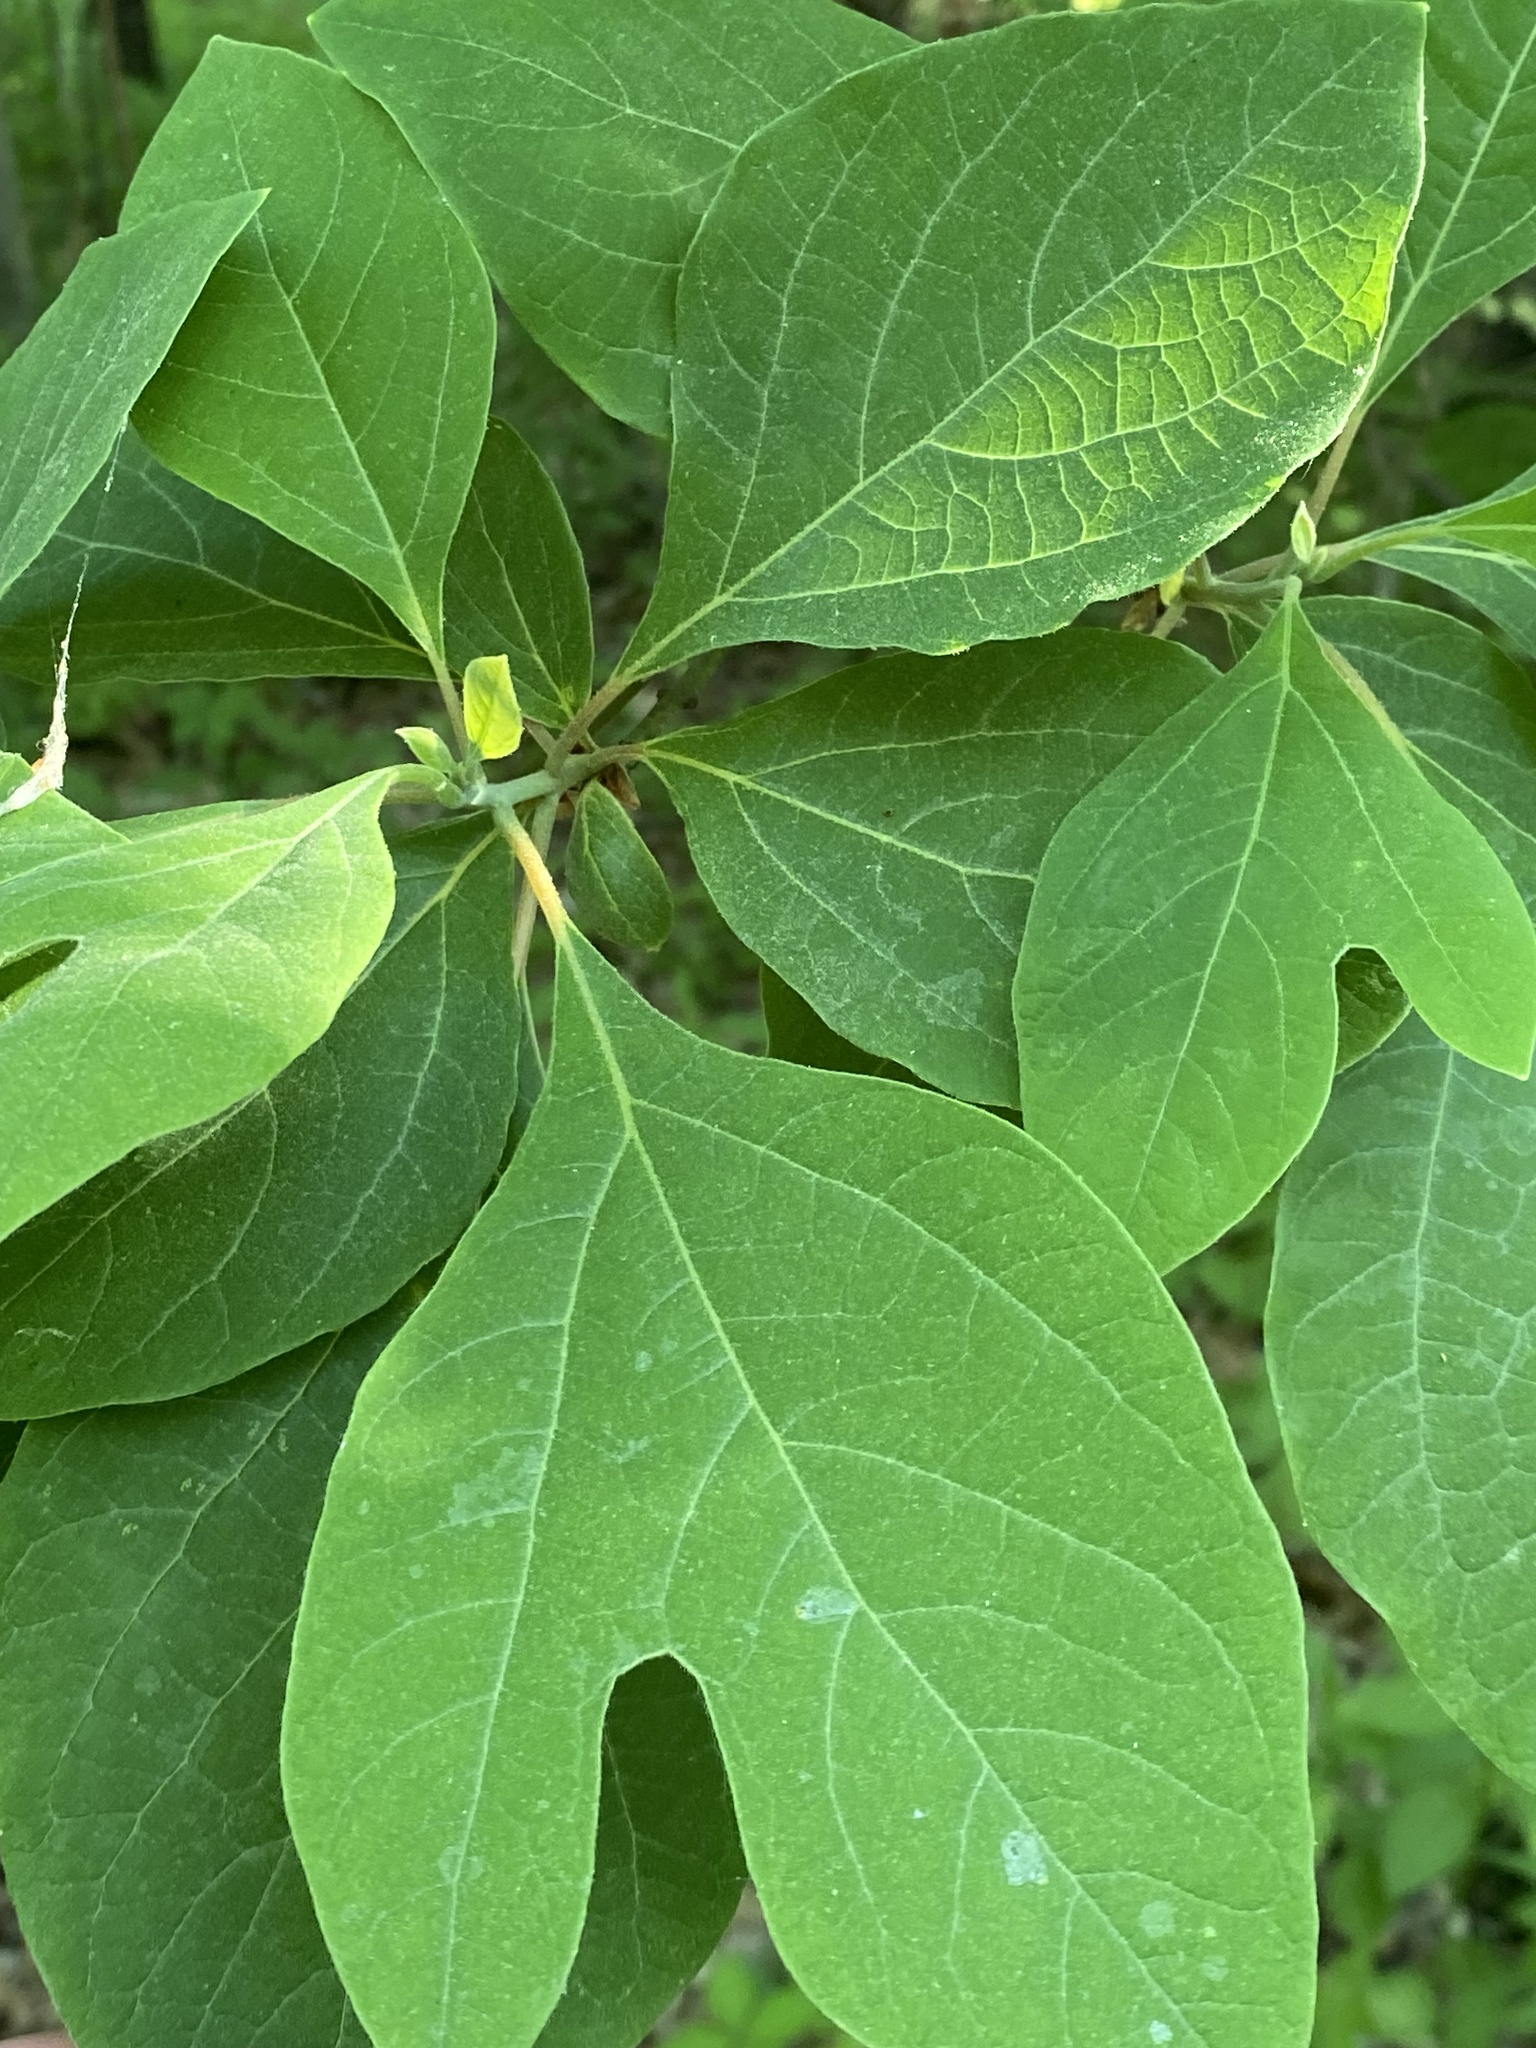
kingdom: Plantae
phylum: Tracheophyta
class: Magnoliopsida
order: Laurales
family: Lauraceae
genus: Sassafras
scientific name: Sassafras albidum
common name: Sassafras
